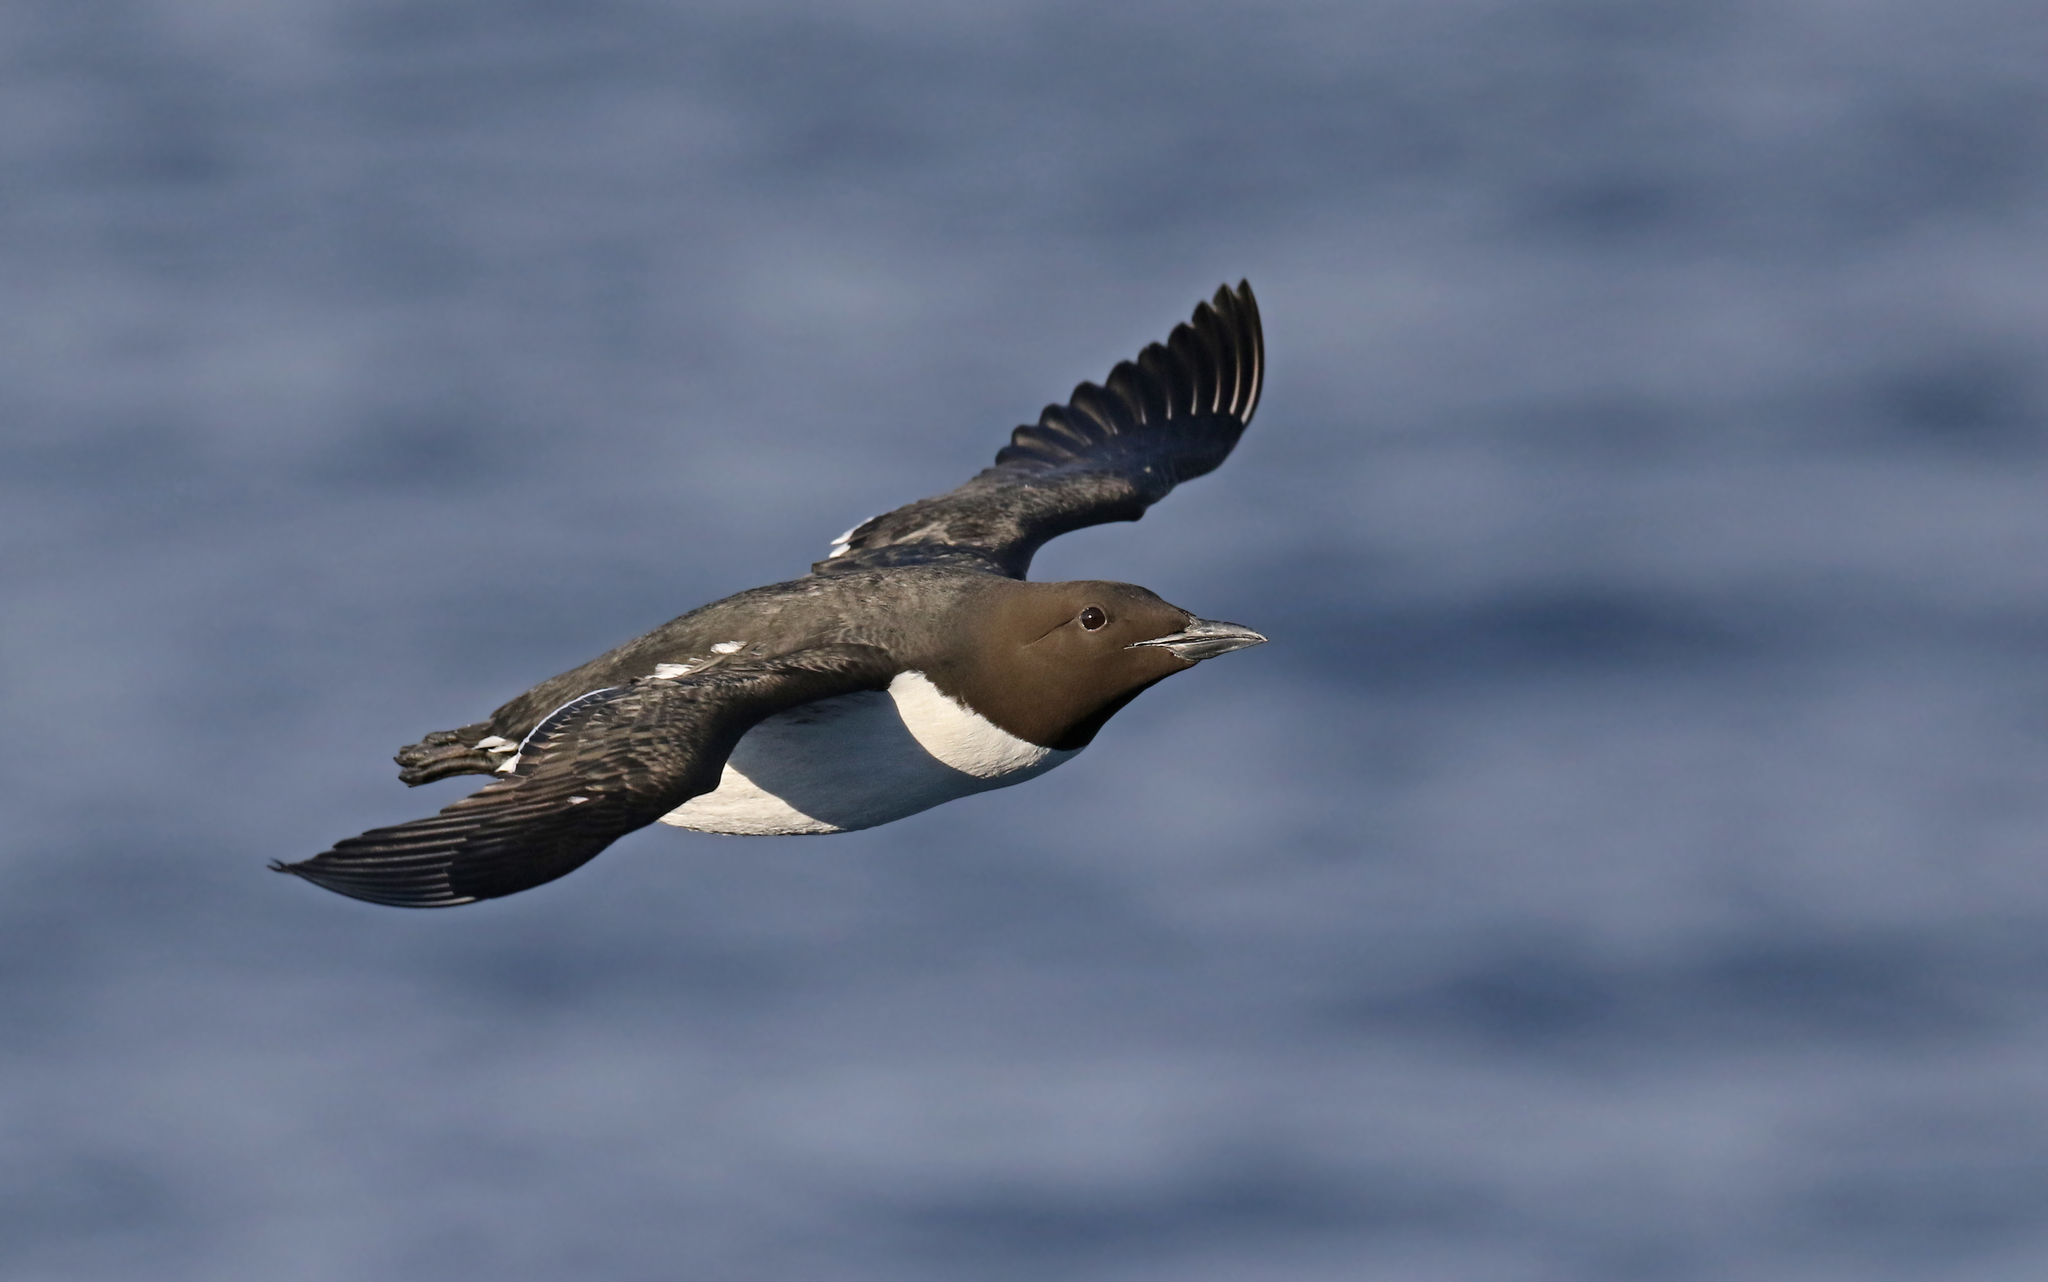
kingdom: Animalia
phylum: Chordata
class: Aves
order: Charadriiformes
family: Alcidae
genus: Uria
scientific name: Uria aalge
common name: Common murre
